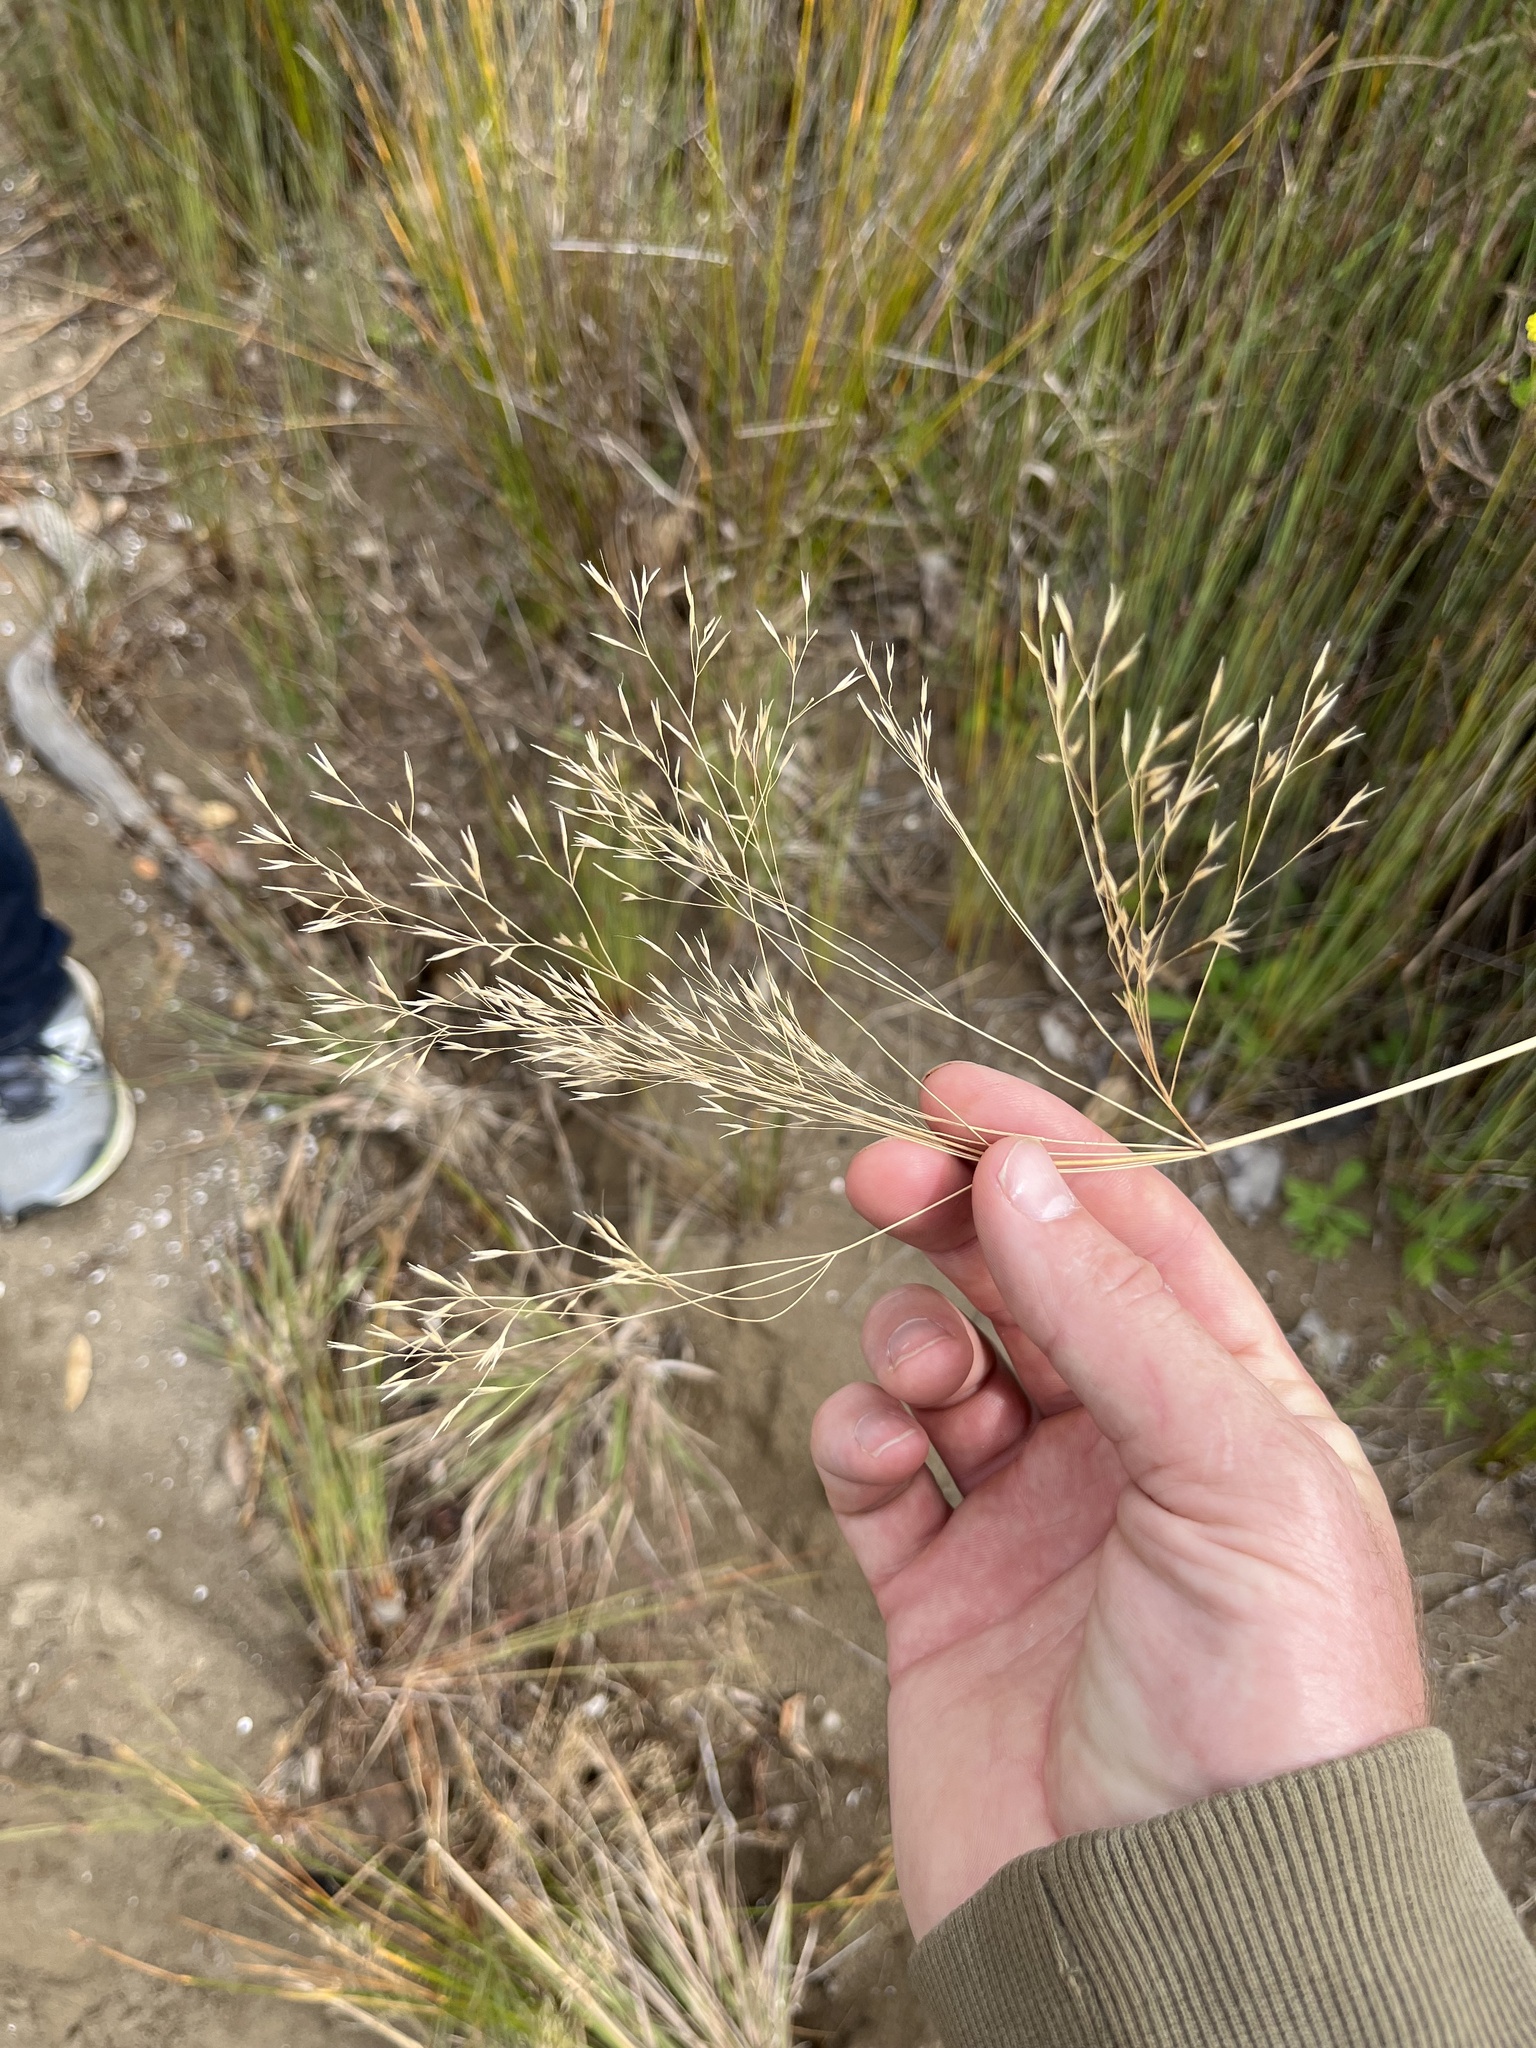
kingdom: Plantae
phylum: Tracheophyta
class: Liliopsida
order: Poales
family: Poaceae
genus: Lachnagrostis
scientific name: Lachnagrostis billardierei
